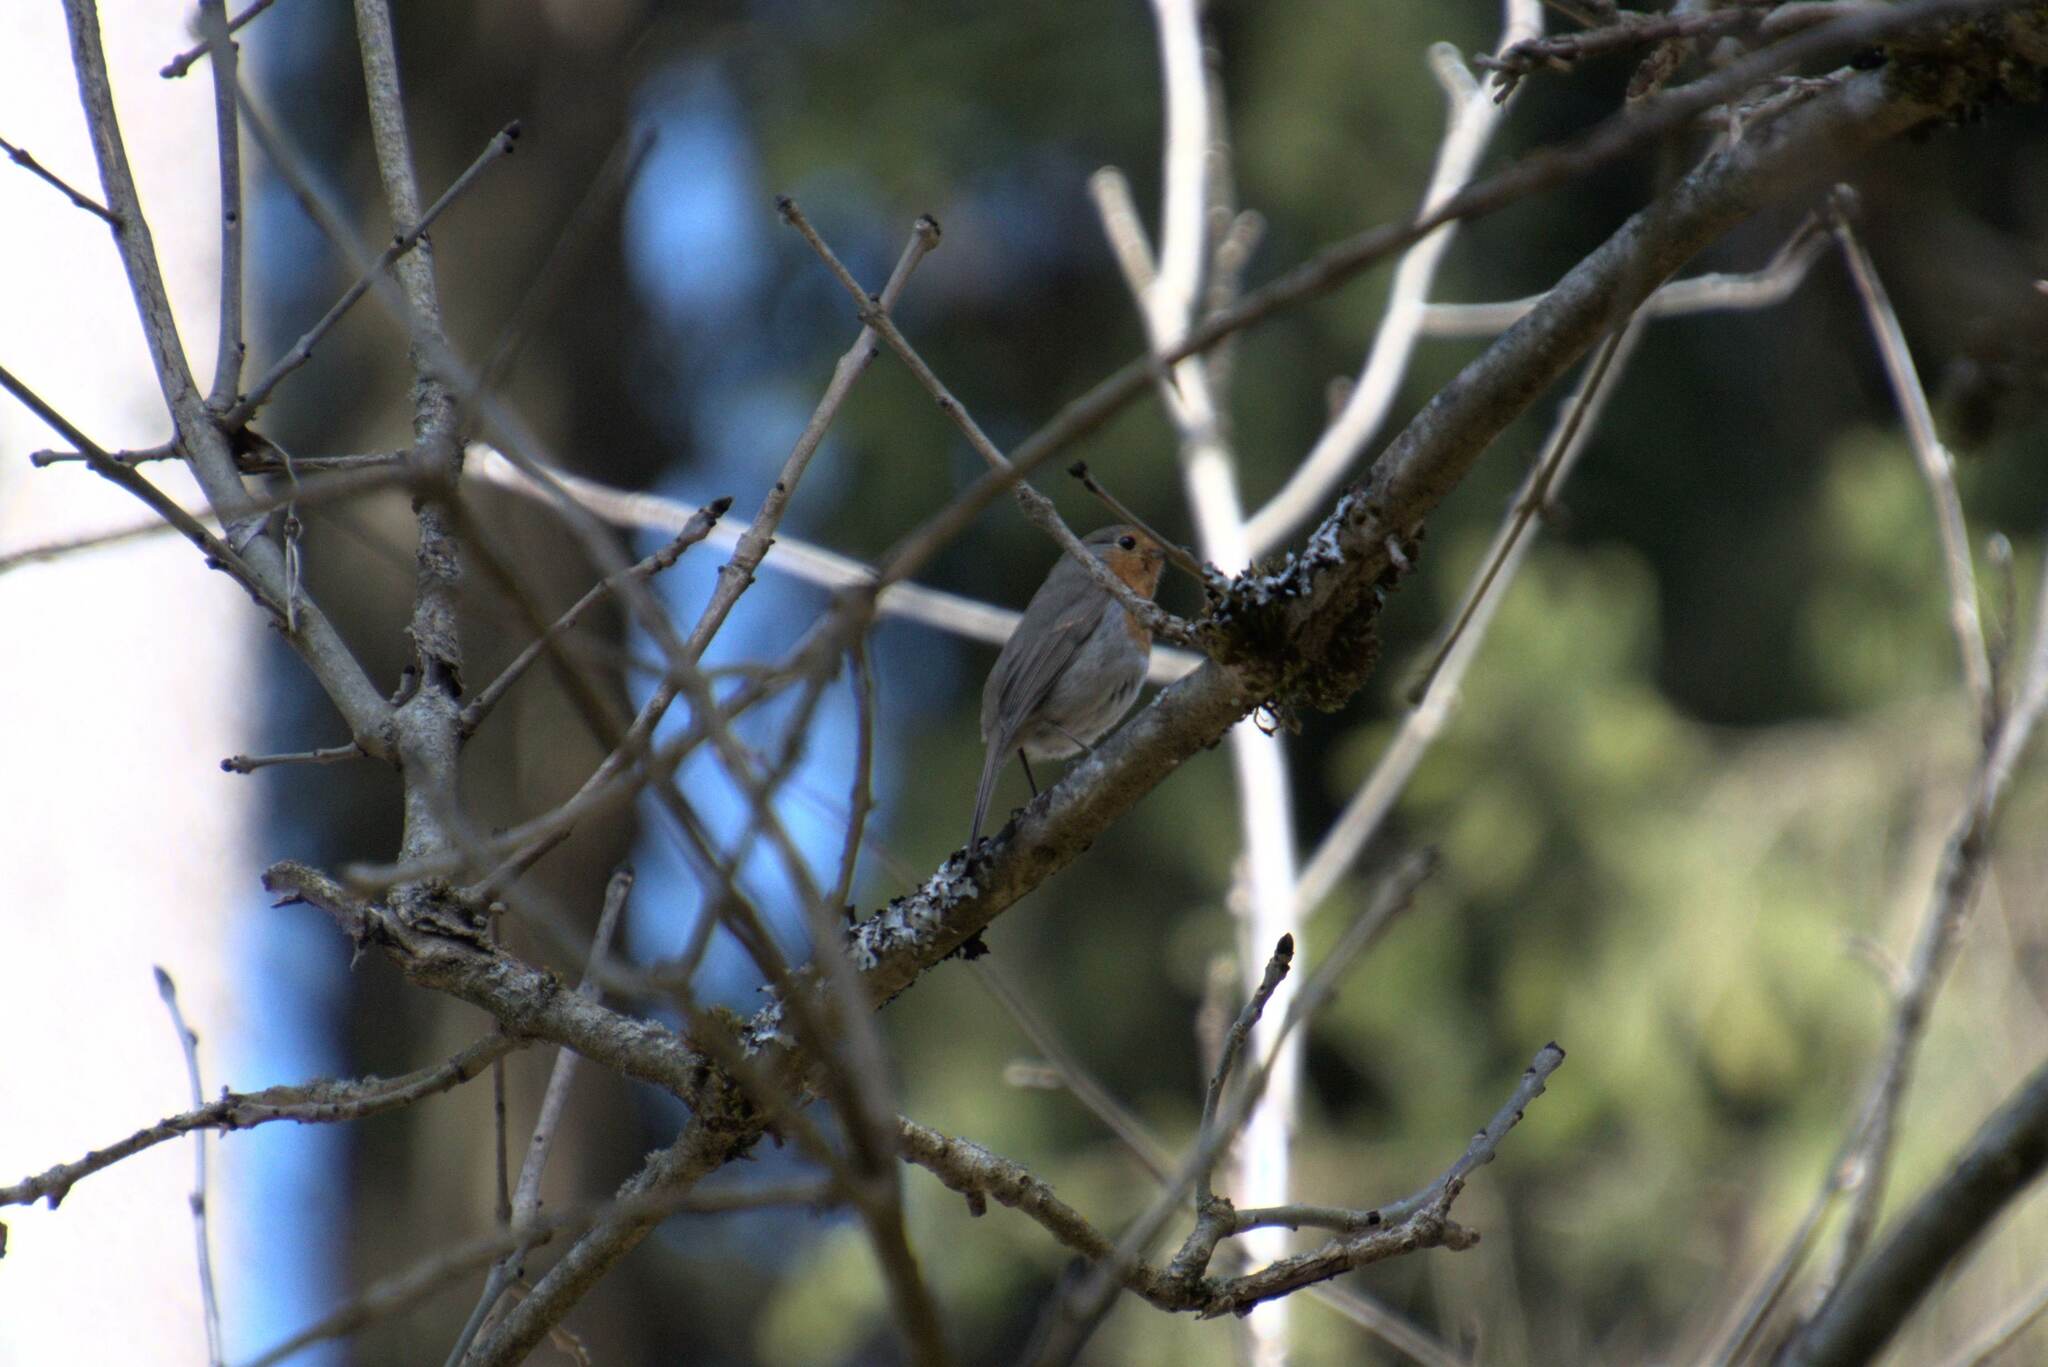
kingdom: Animalia
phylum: Chordata
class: Aves
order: Passeriformes
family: Muscicapidae
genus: Erithacus
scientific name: Erithacus rubecula
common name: European robin
